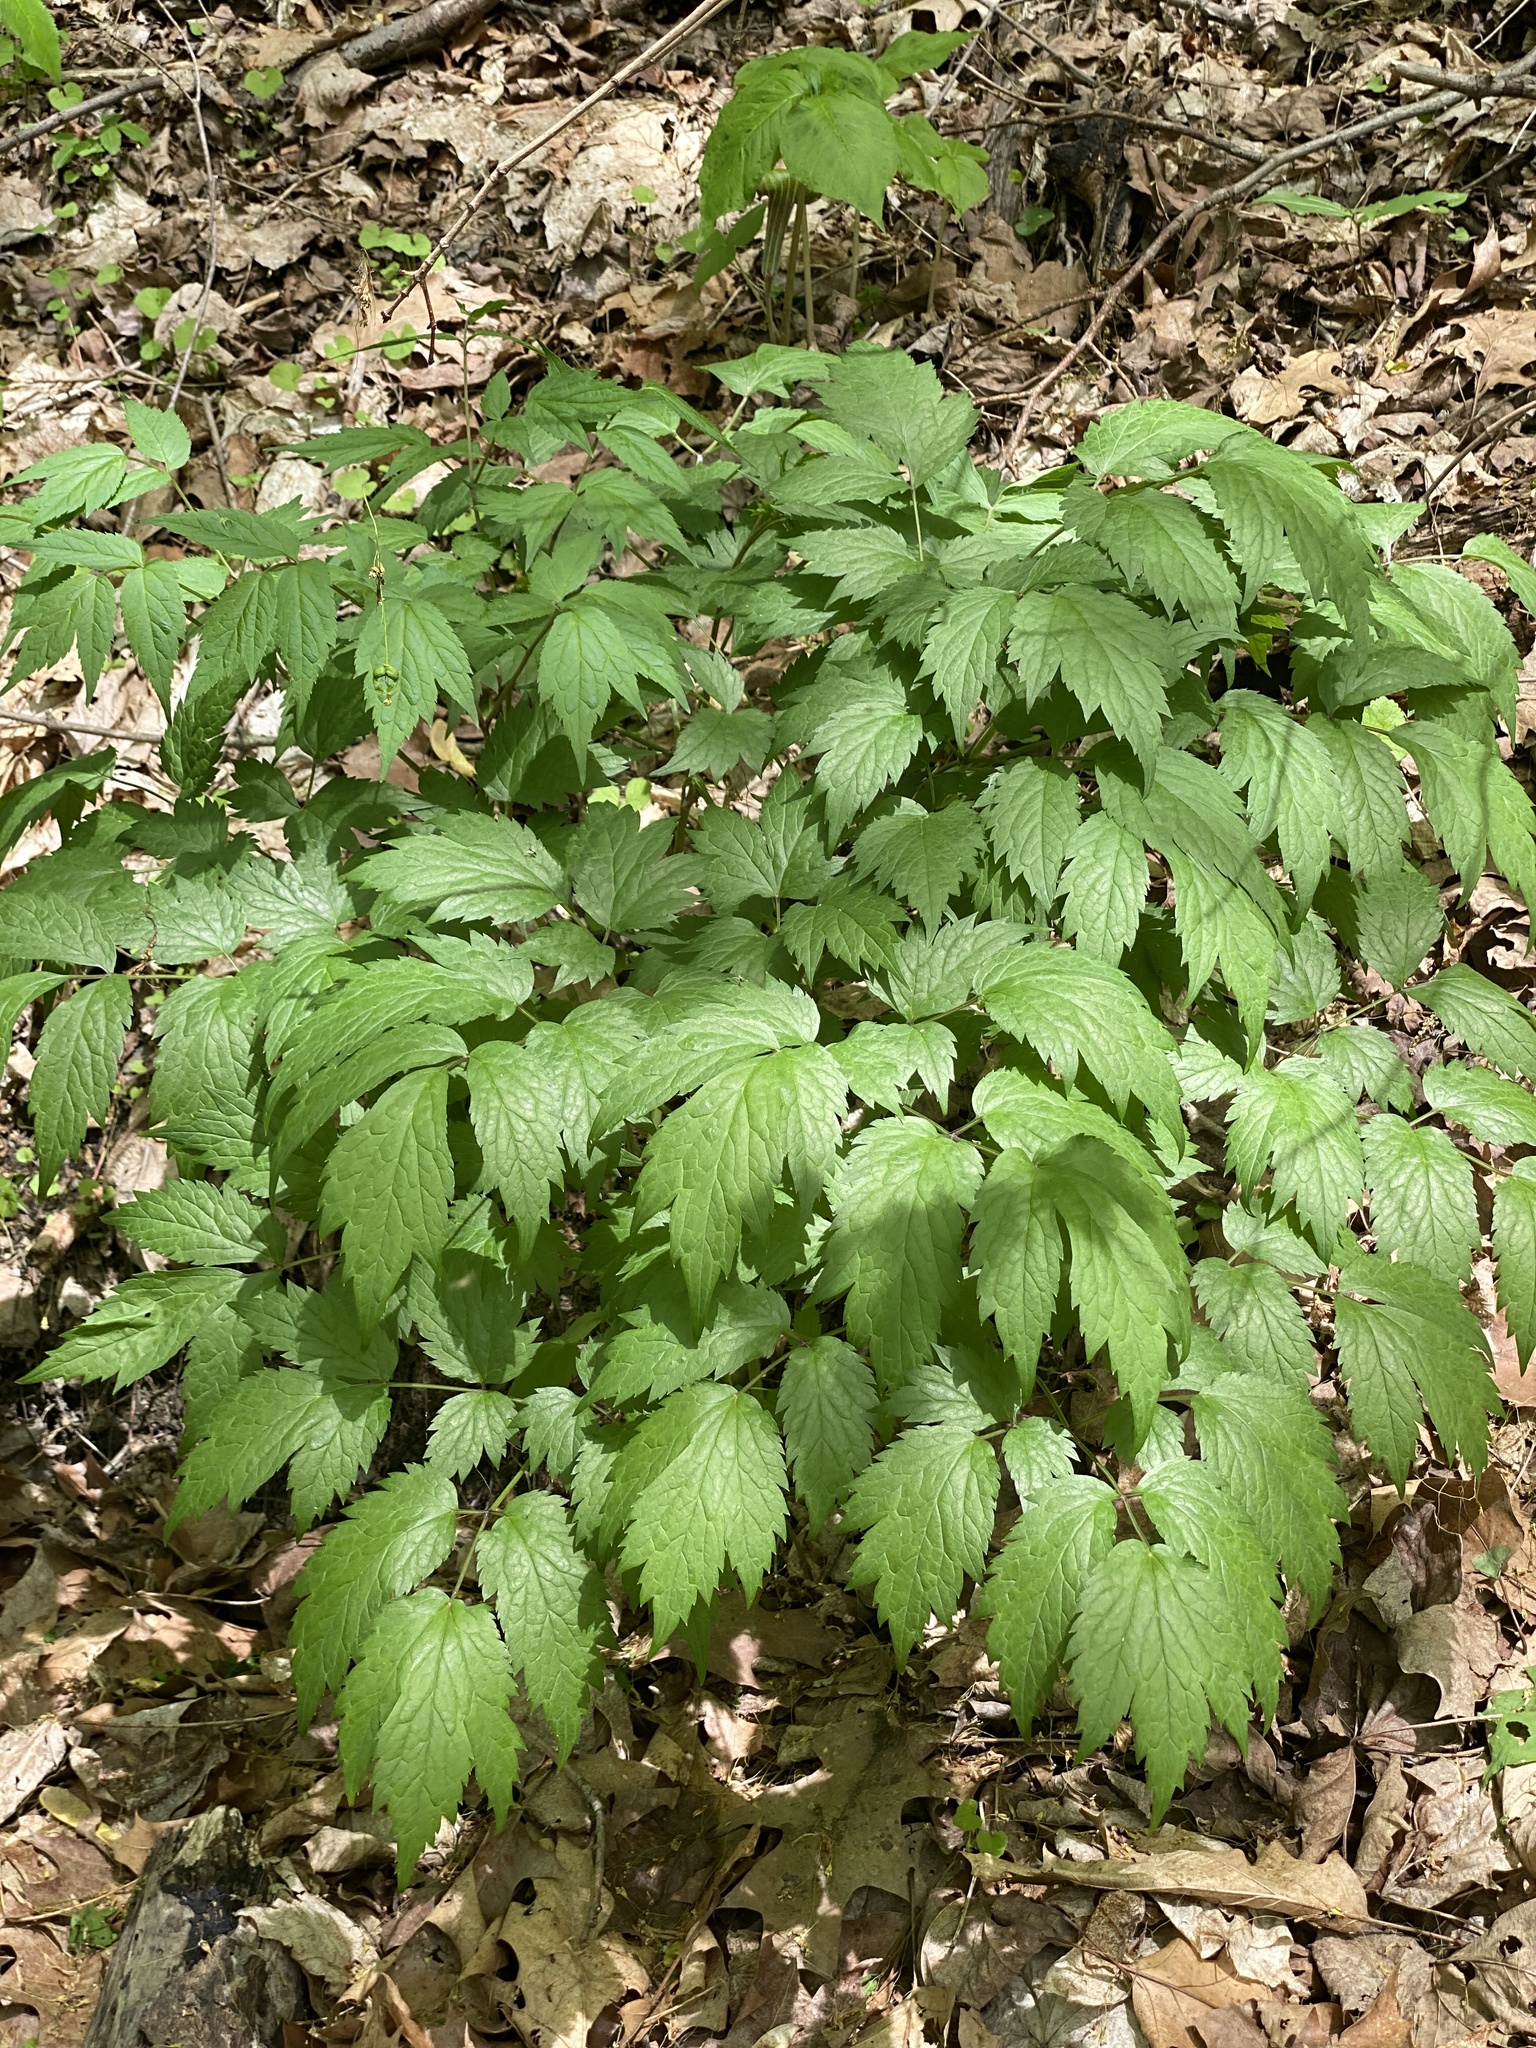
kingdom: Plantae
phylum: Tracheophyta
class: Magnoliopsida
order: Ranunculales
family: Ranunculaceae
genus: Actaea
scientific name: Actaea racemosa
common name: Black cohosh
